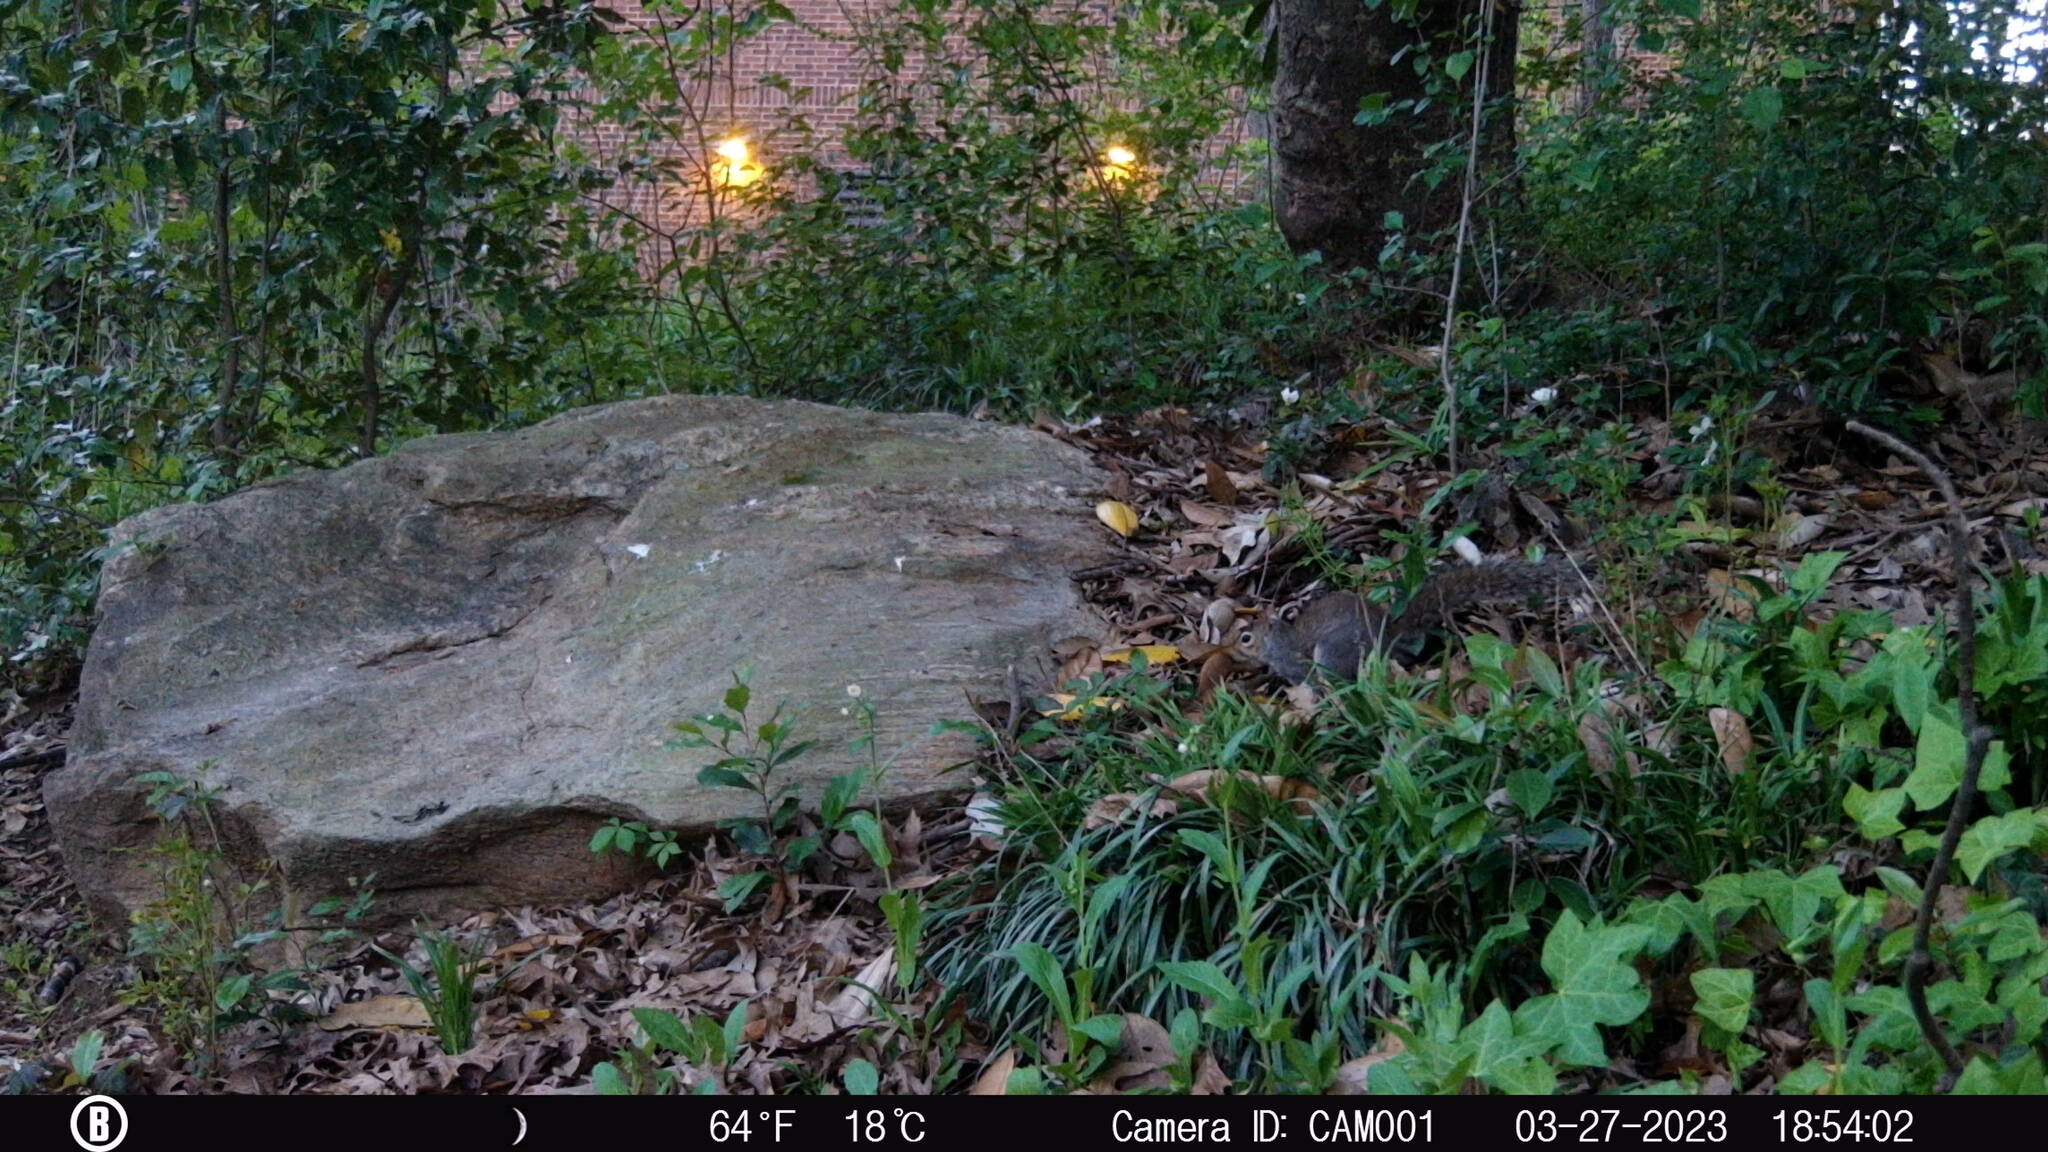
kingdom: Animalia
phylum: Chordata
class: Mammalia
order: Rodentia
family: Sciuridae
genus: Sciurus
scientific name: Sciurus carolinensis
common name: Eastern gray squirrel
